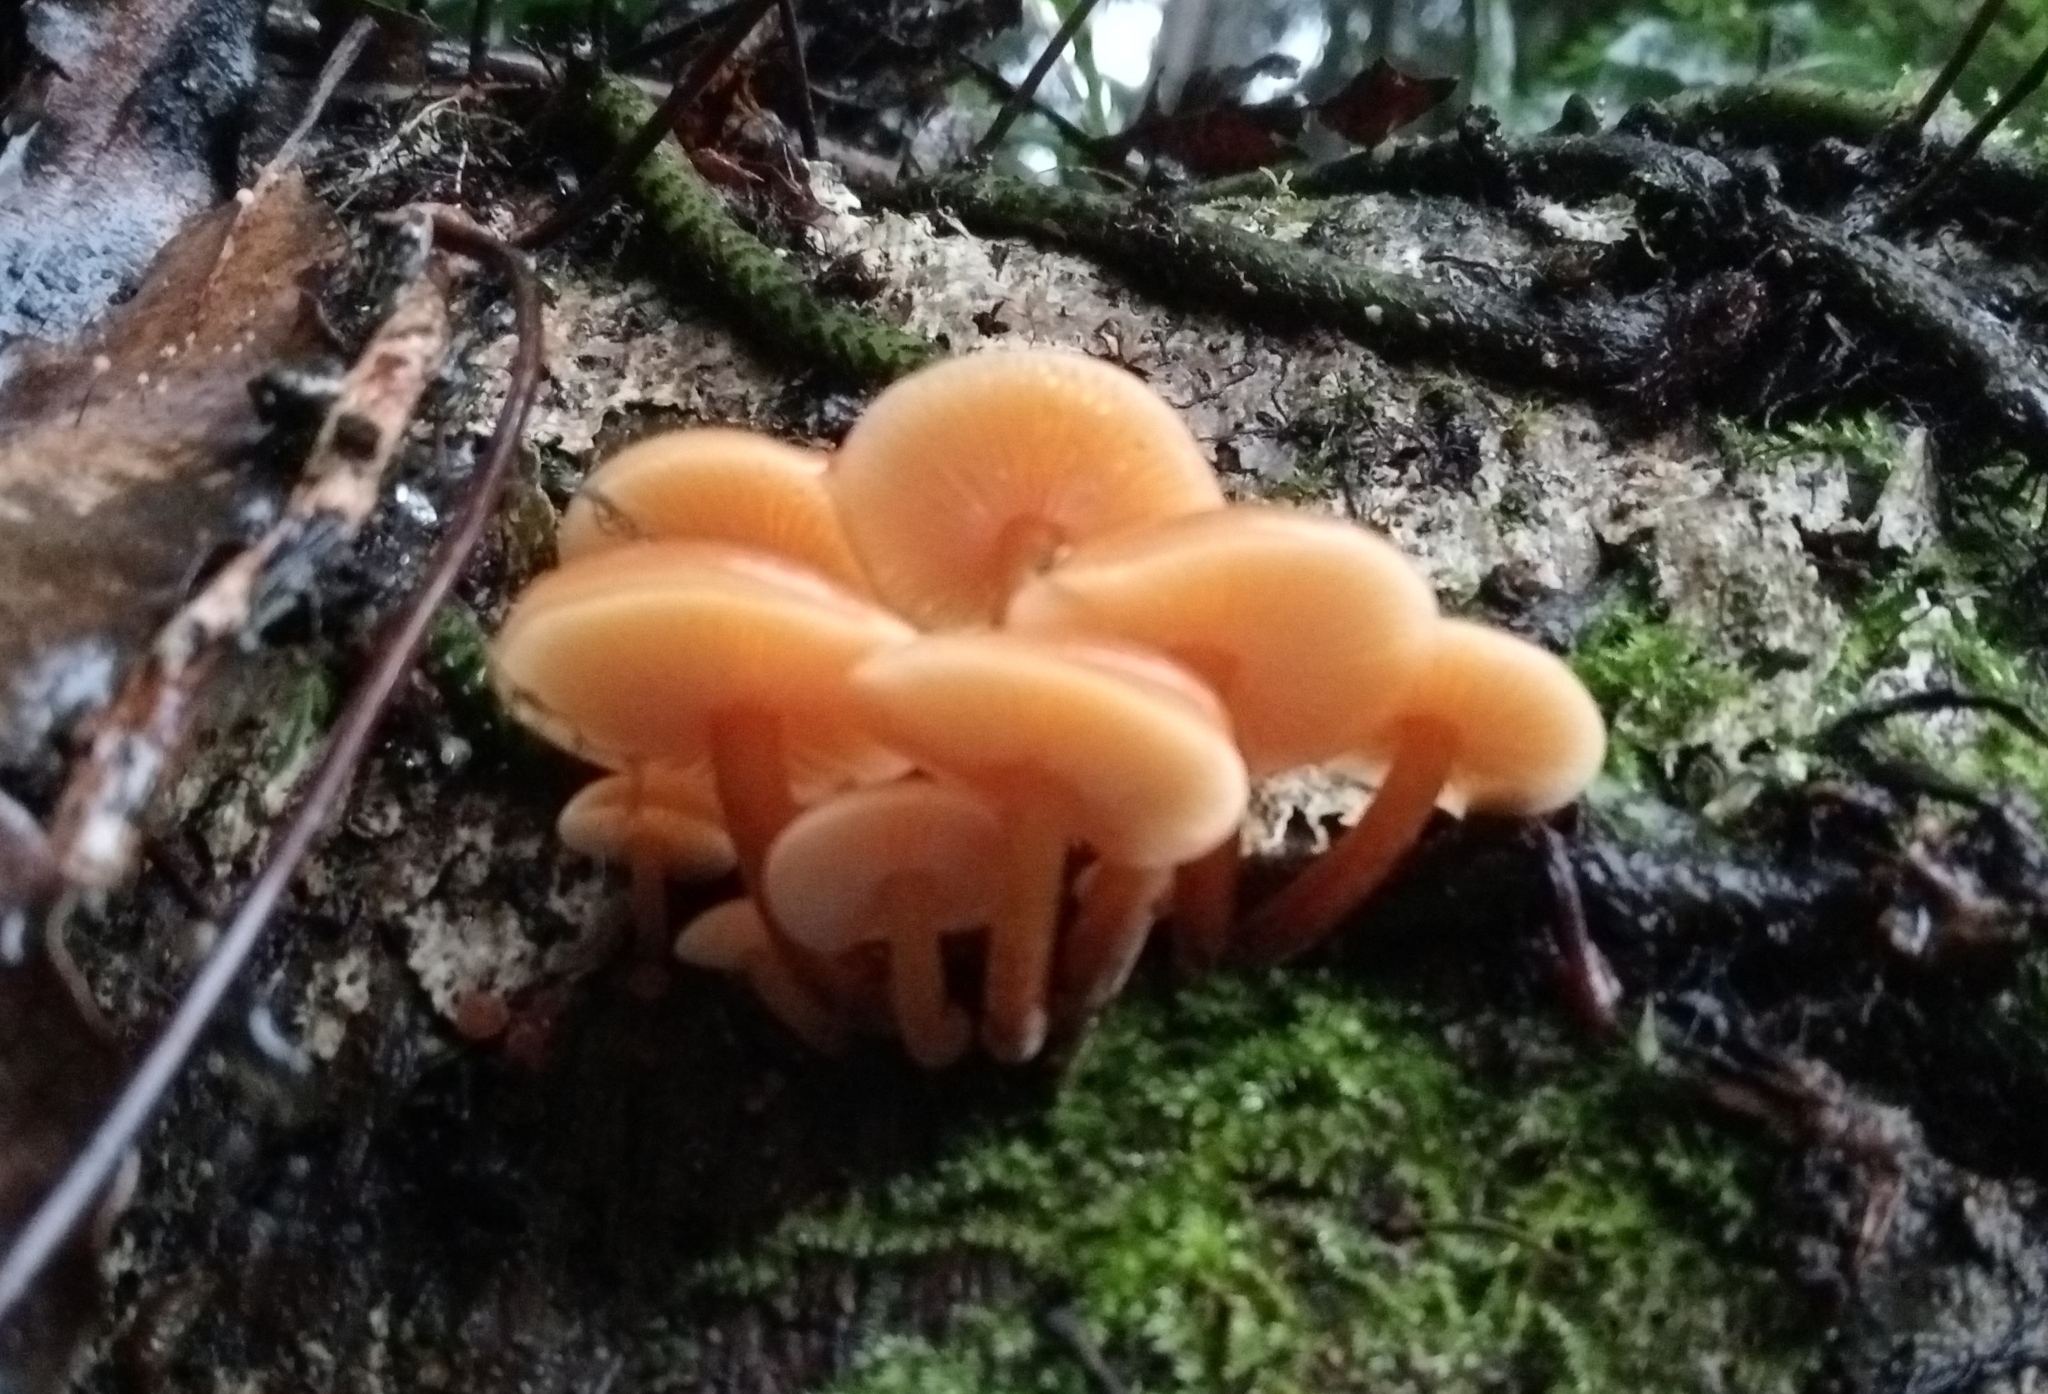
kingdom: Fungi
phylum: Basidiomycota
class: Agaricomycetes
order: Agaricales
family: Physalacriaceae
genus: Flammulina
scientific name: Flammulina velutipes
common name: Velvet shank
